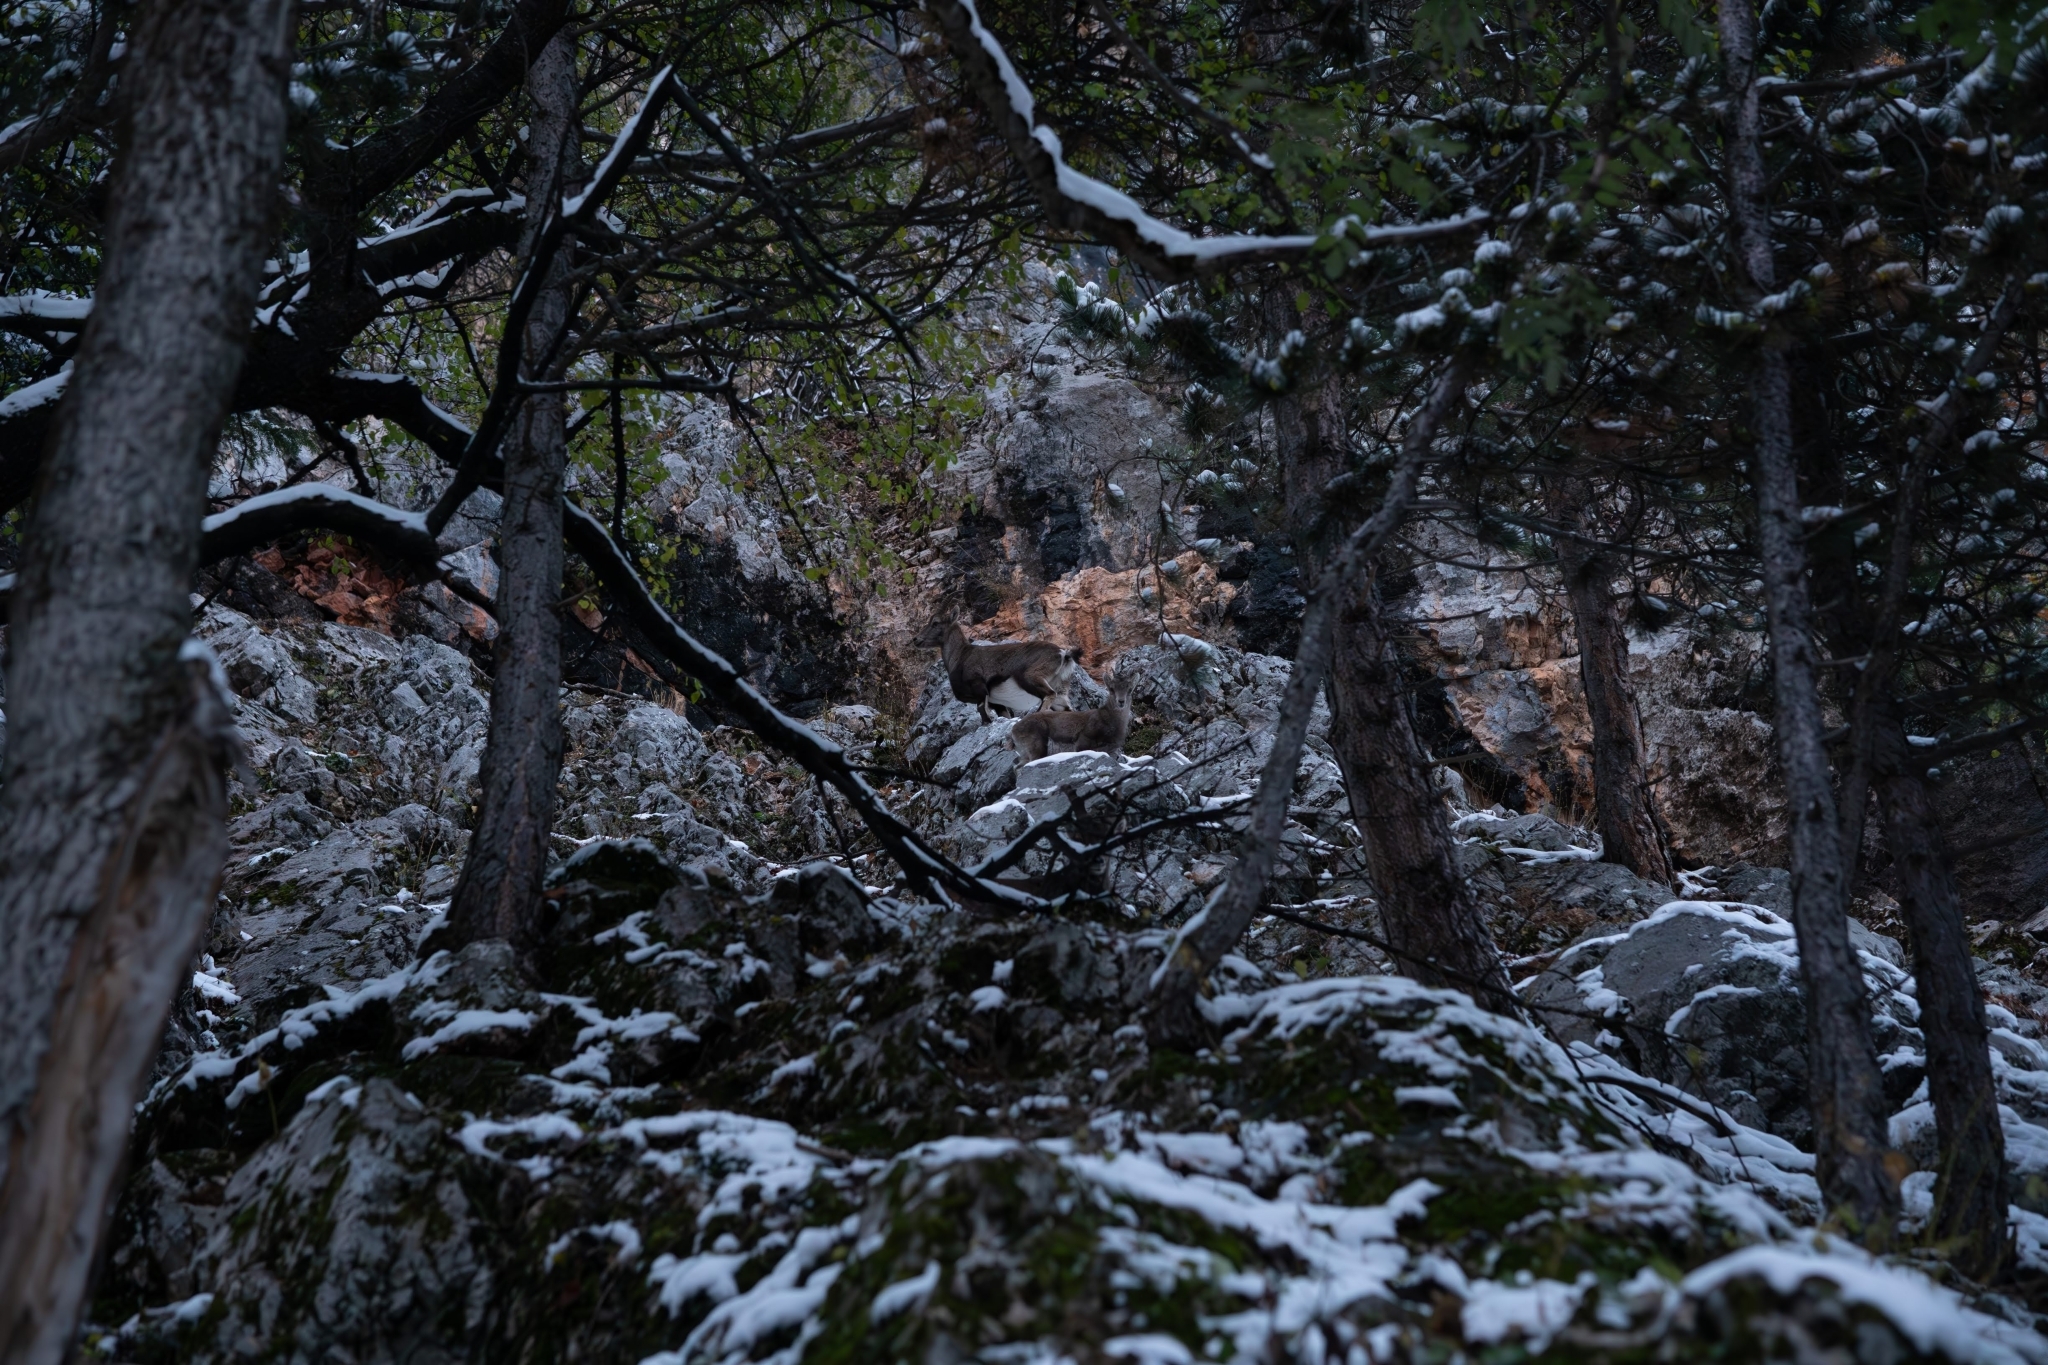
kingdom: Animalia
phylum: Chordata
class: Mammalia
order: Artiodactyla
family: Bovidae
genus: Capra
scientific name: Capra ibex
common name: Alpine ibex
